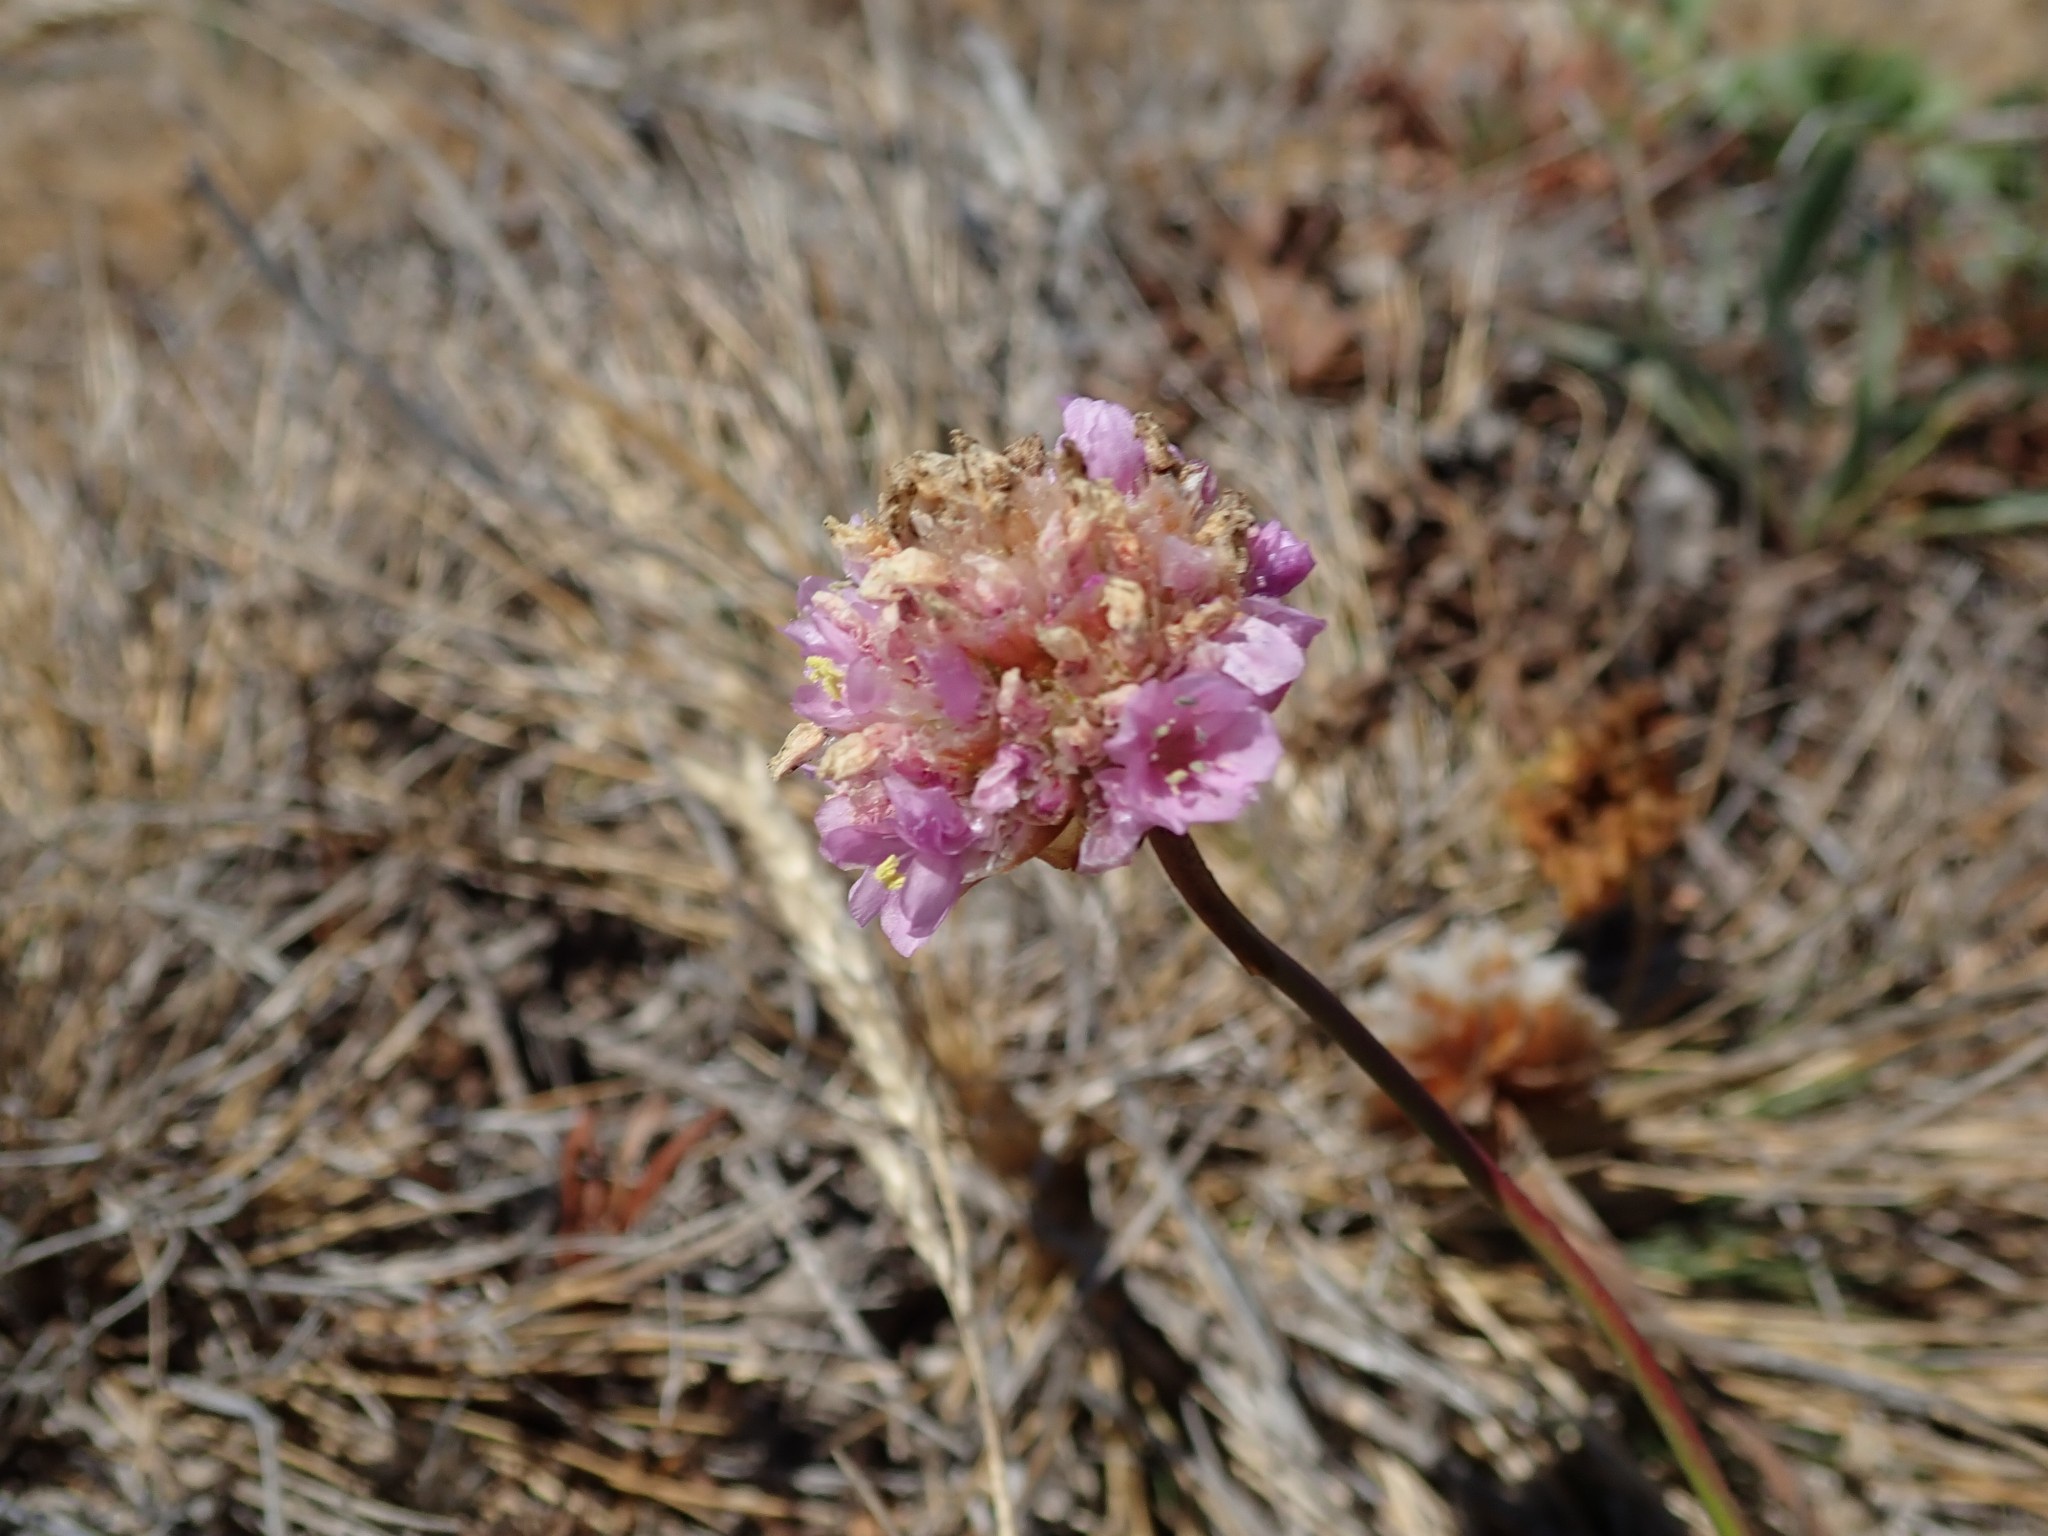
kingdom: Plantae
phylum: Tracheophyta
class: Magnoliopsida
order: Caryophyllales
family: Plumbaginaceae
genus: Armeria
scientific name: Armeria maritima
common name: Thrift
